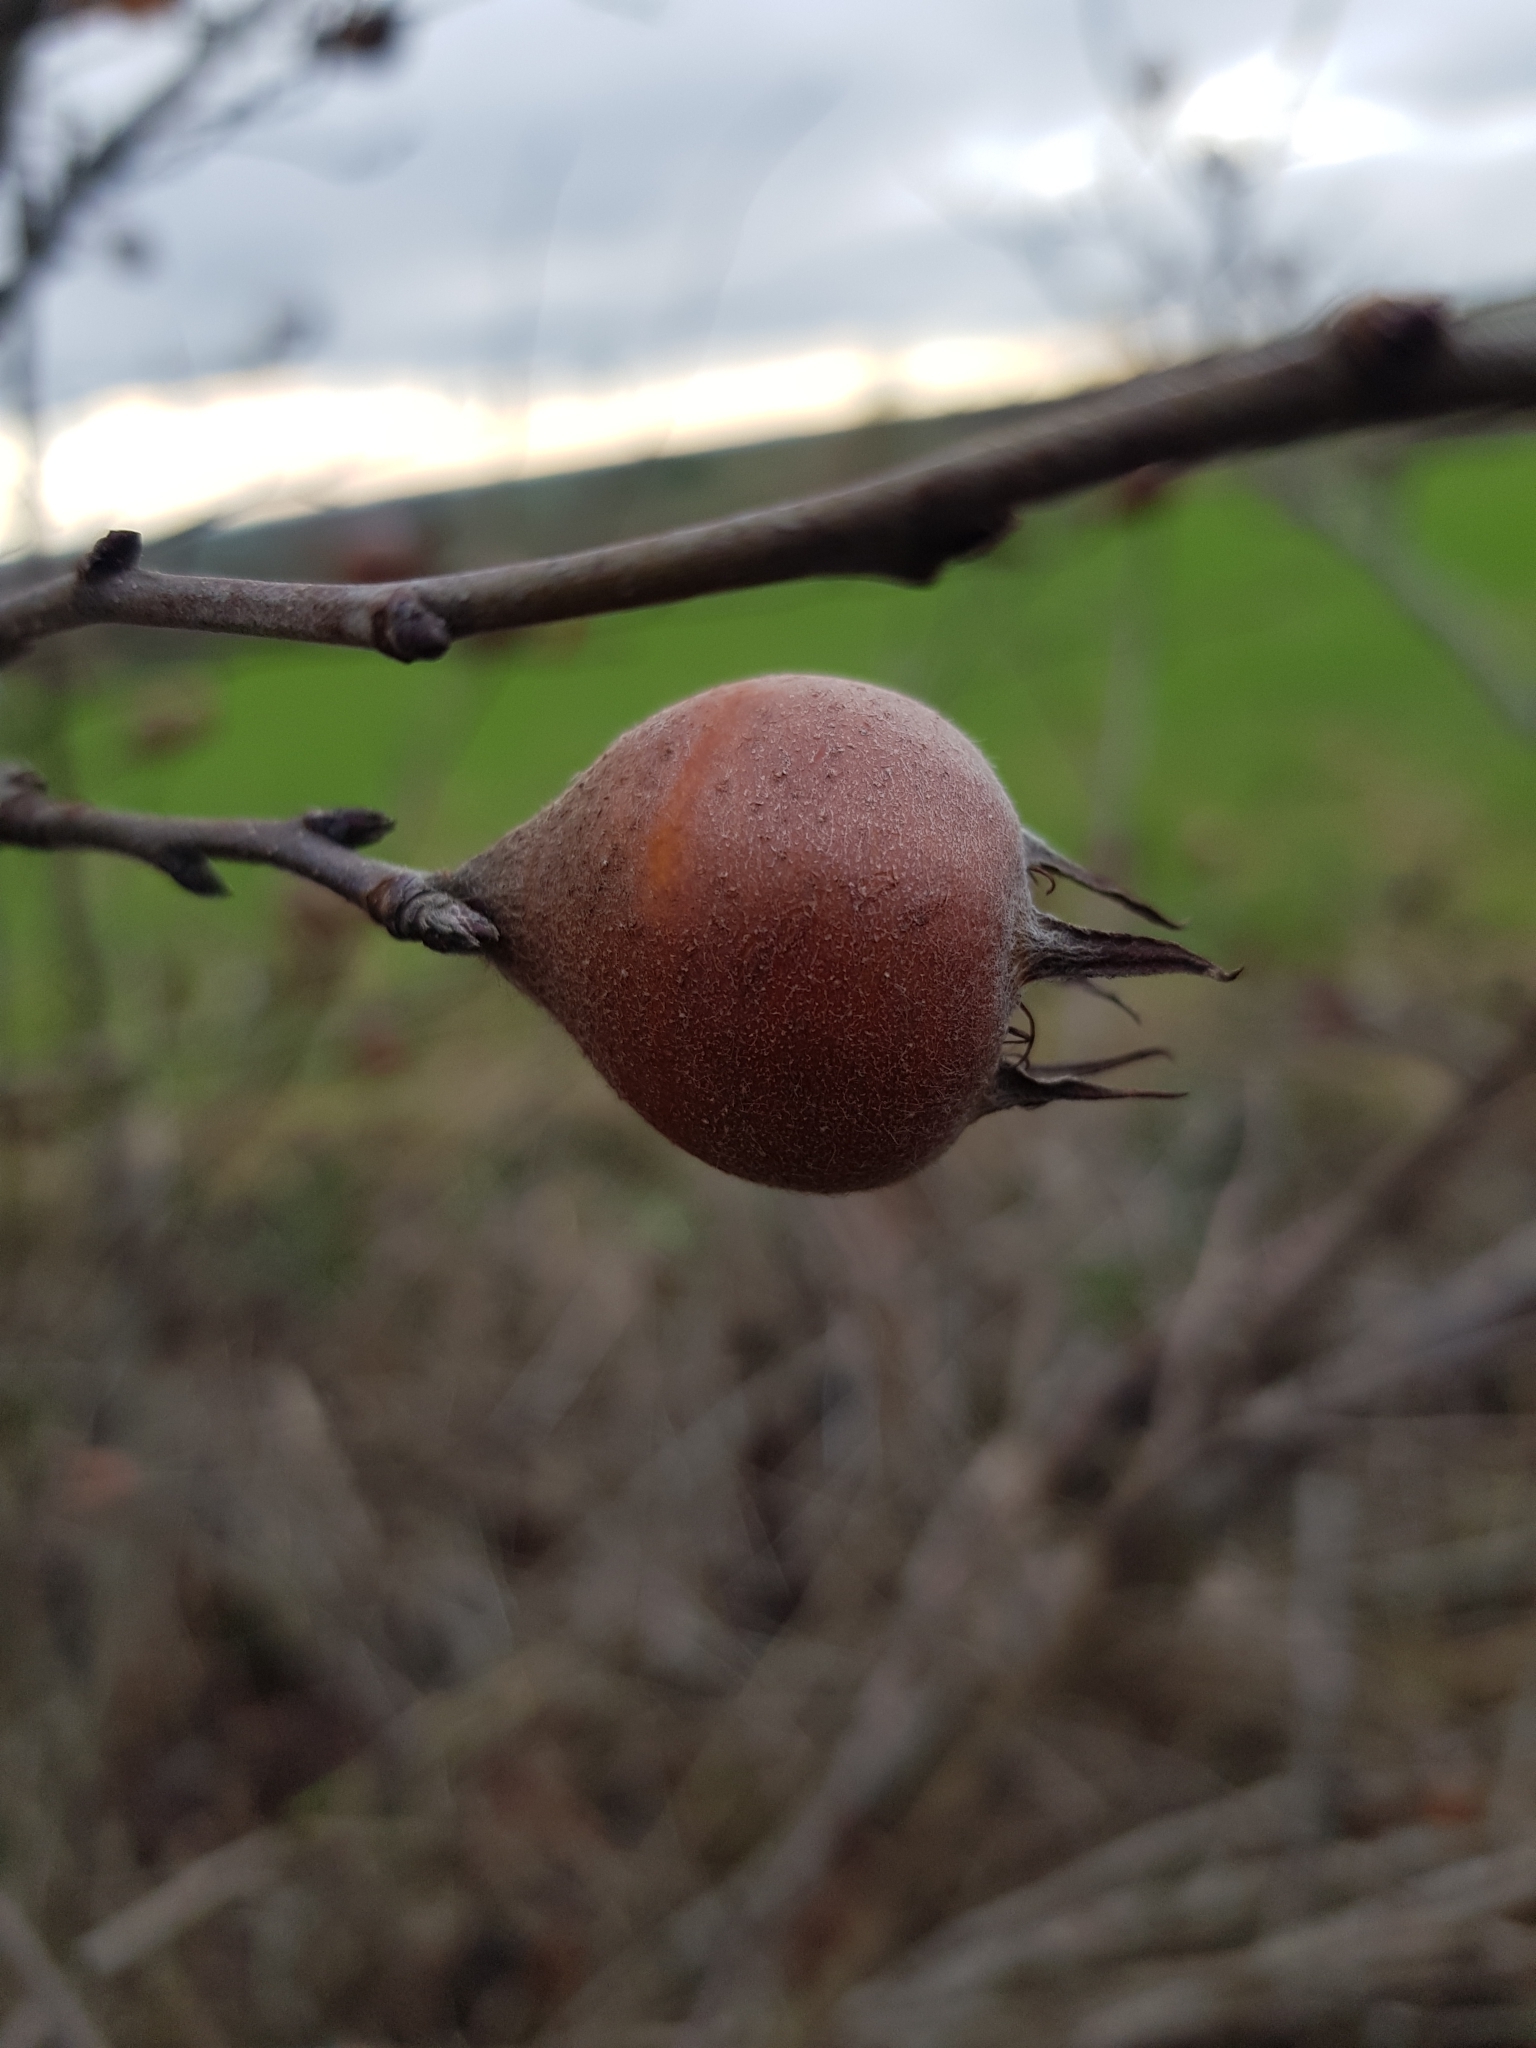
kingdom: Plantae
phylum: Tracheophyta
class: Magnoliopsida
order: Rosales
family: Rosaceae
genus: Mespilus
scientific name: Mespilus germanica
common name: Medlar
